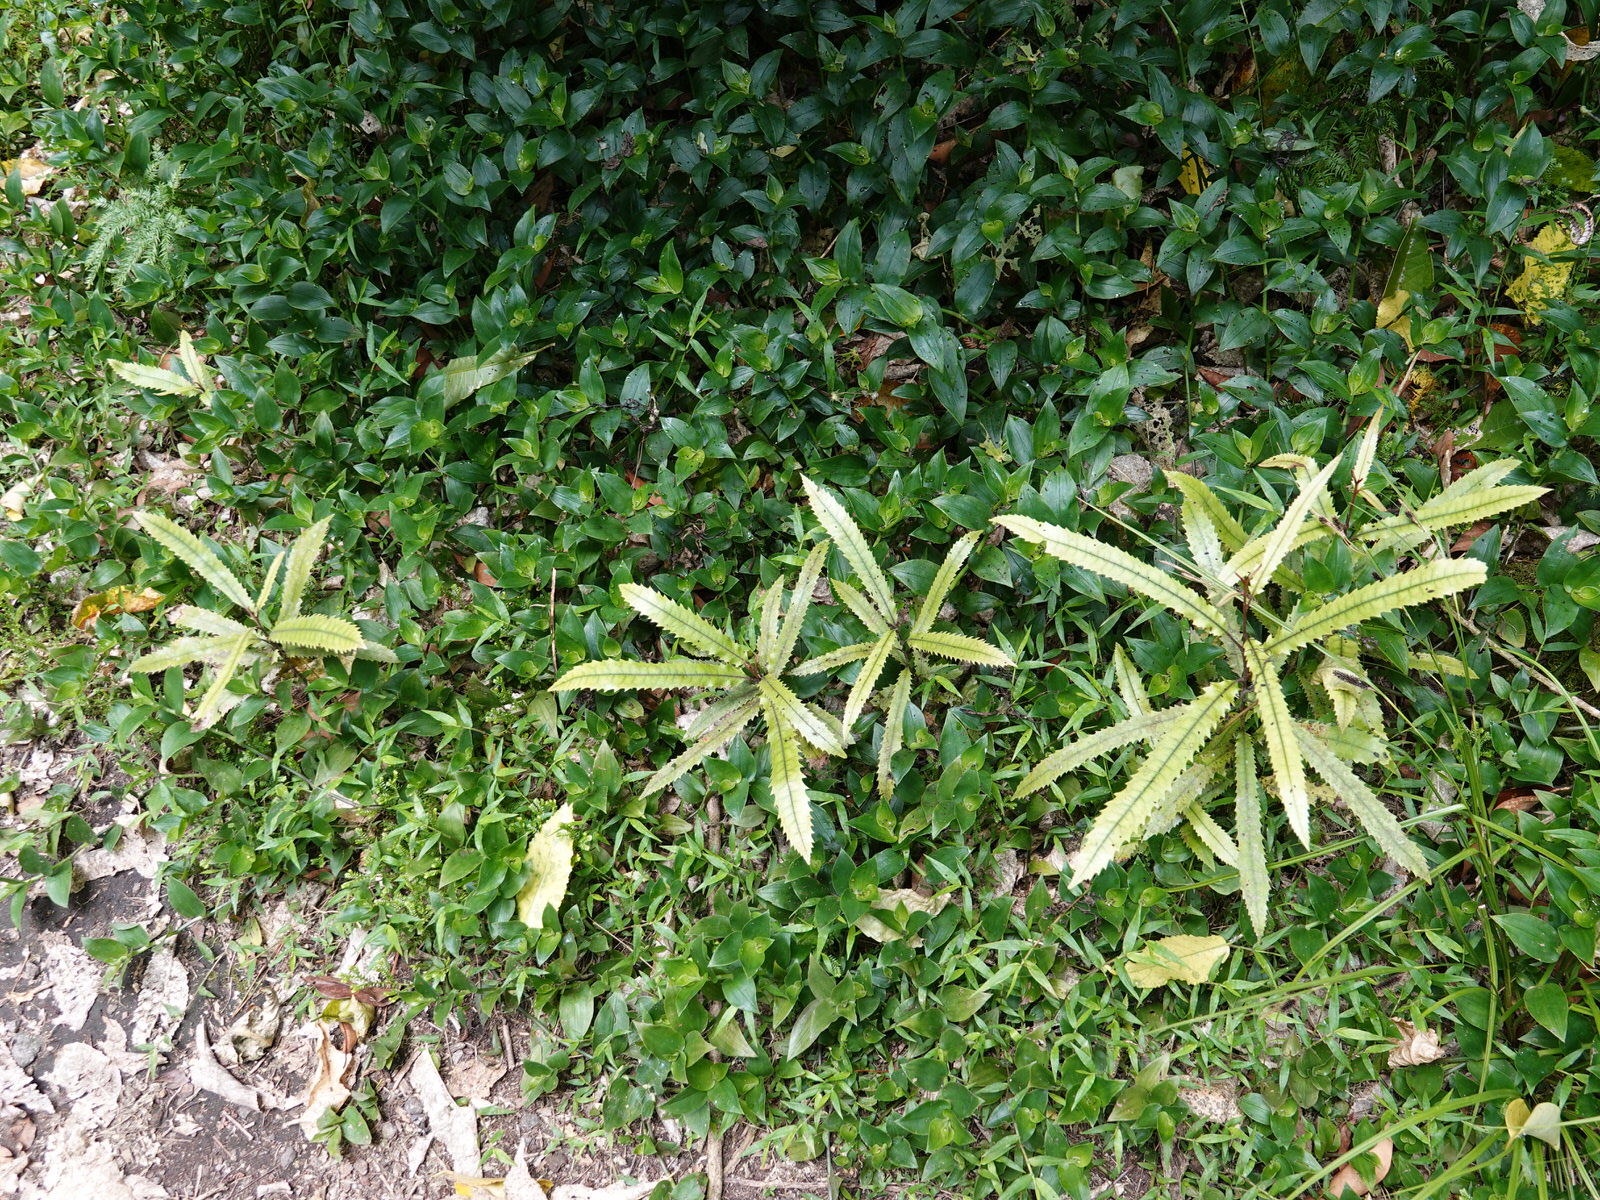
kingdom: Plantae
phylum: Tracheophyta
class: Magnoliopsida
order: Proteales
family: Proteaceae
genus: Knightia
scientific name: Knightia excelsa
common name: New zealand-honeysuckle
